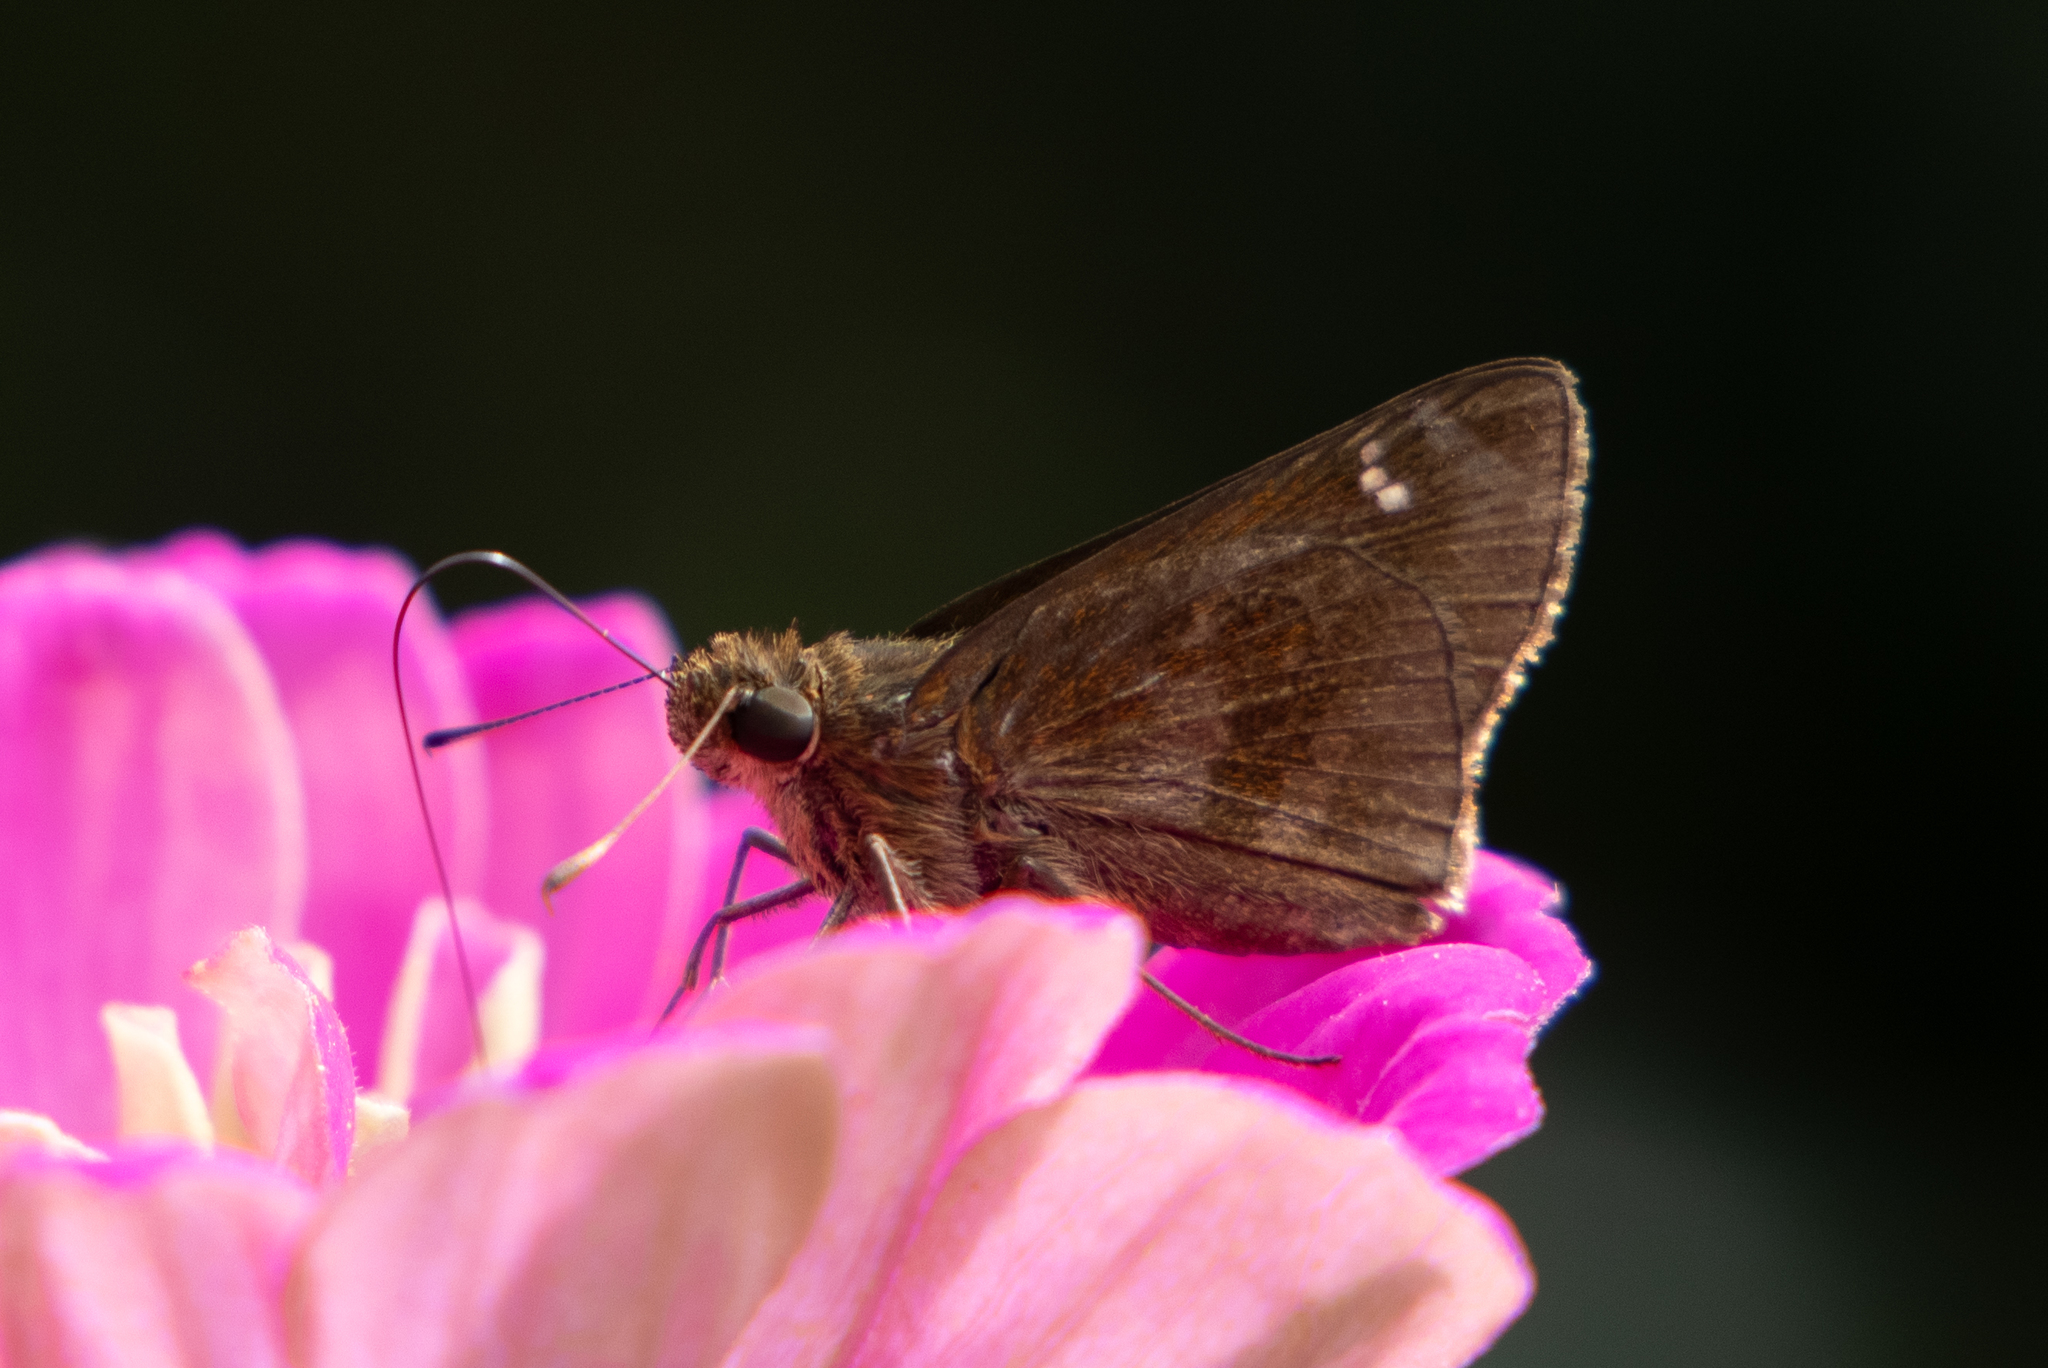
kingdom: Animalia
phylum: Arthropoda
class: Insecta
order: Lepidoptera
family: Hesperiidae
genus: Lerema
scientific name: Lerema accius
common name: Clouded skipper
